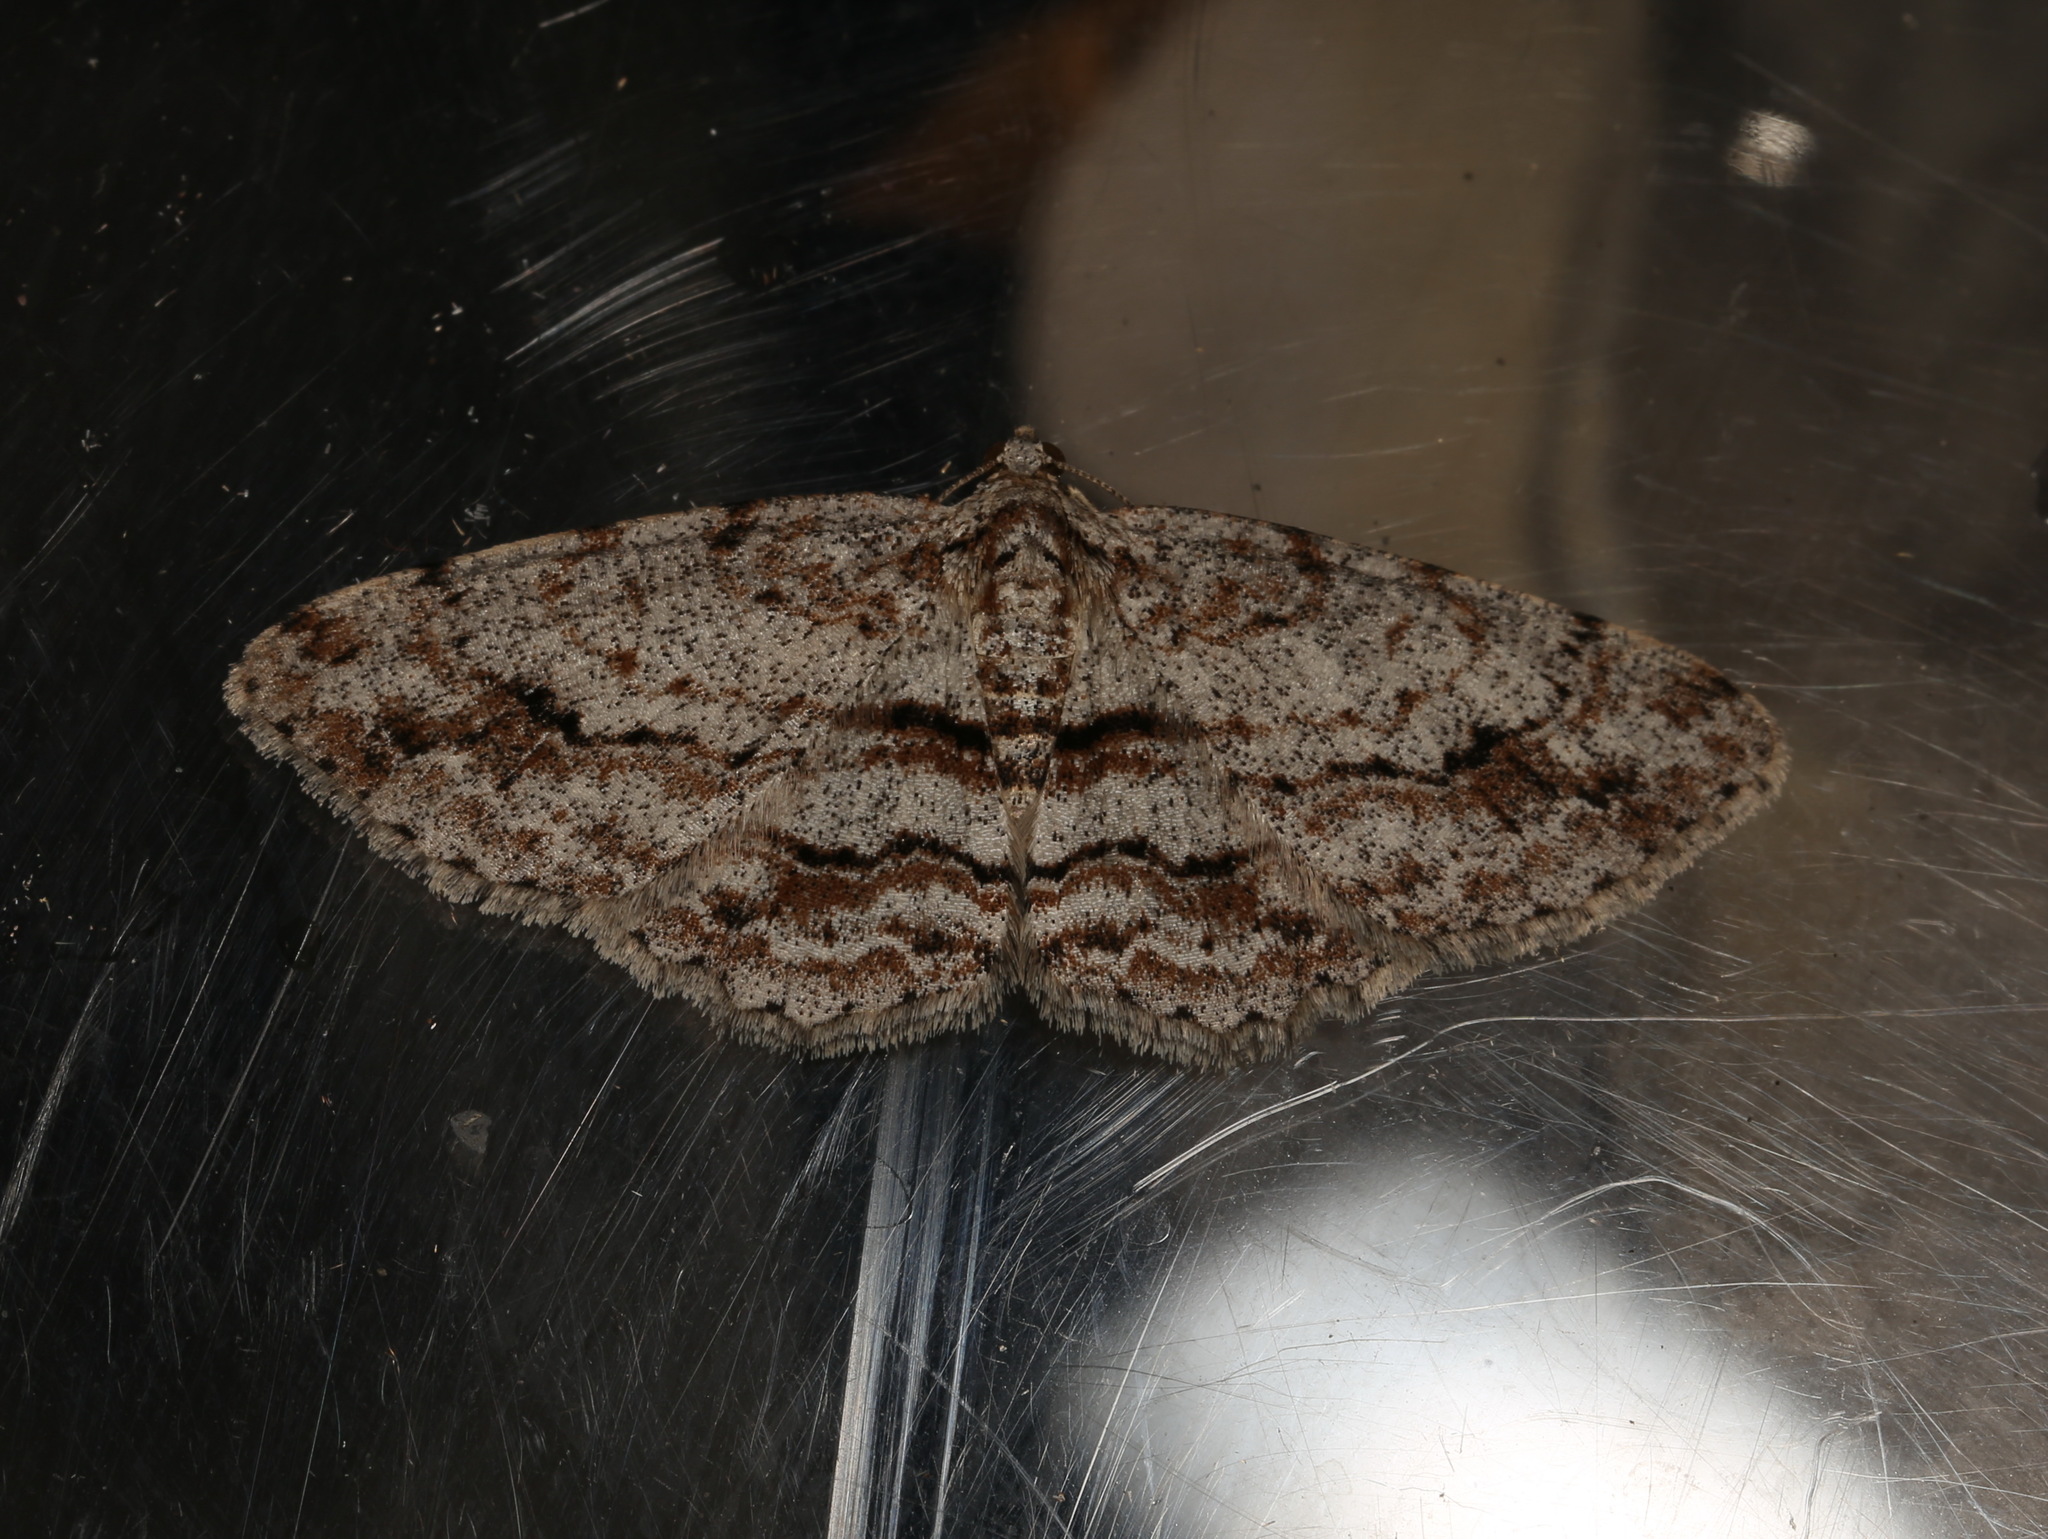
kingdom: Animalia
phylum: Arthropoda
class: Insecta
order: Lepidoptera
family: Geometridae
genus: Didymoctenia
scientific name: Didymoctenia exsuperata
